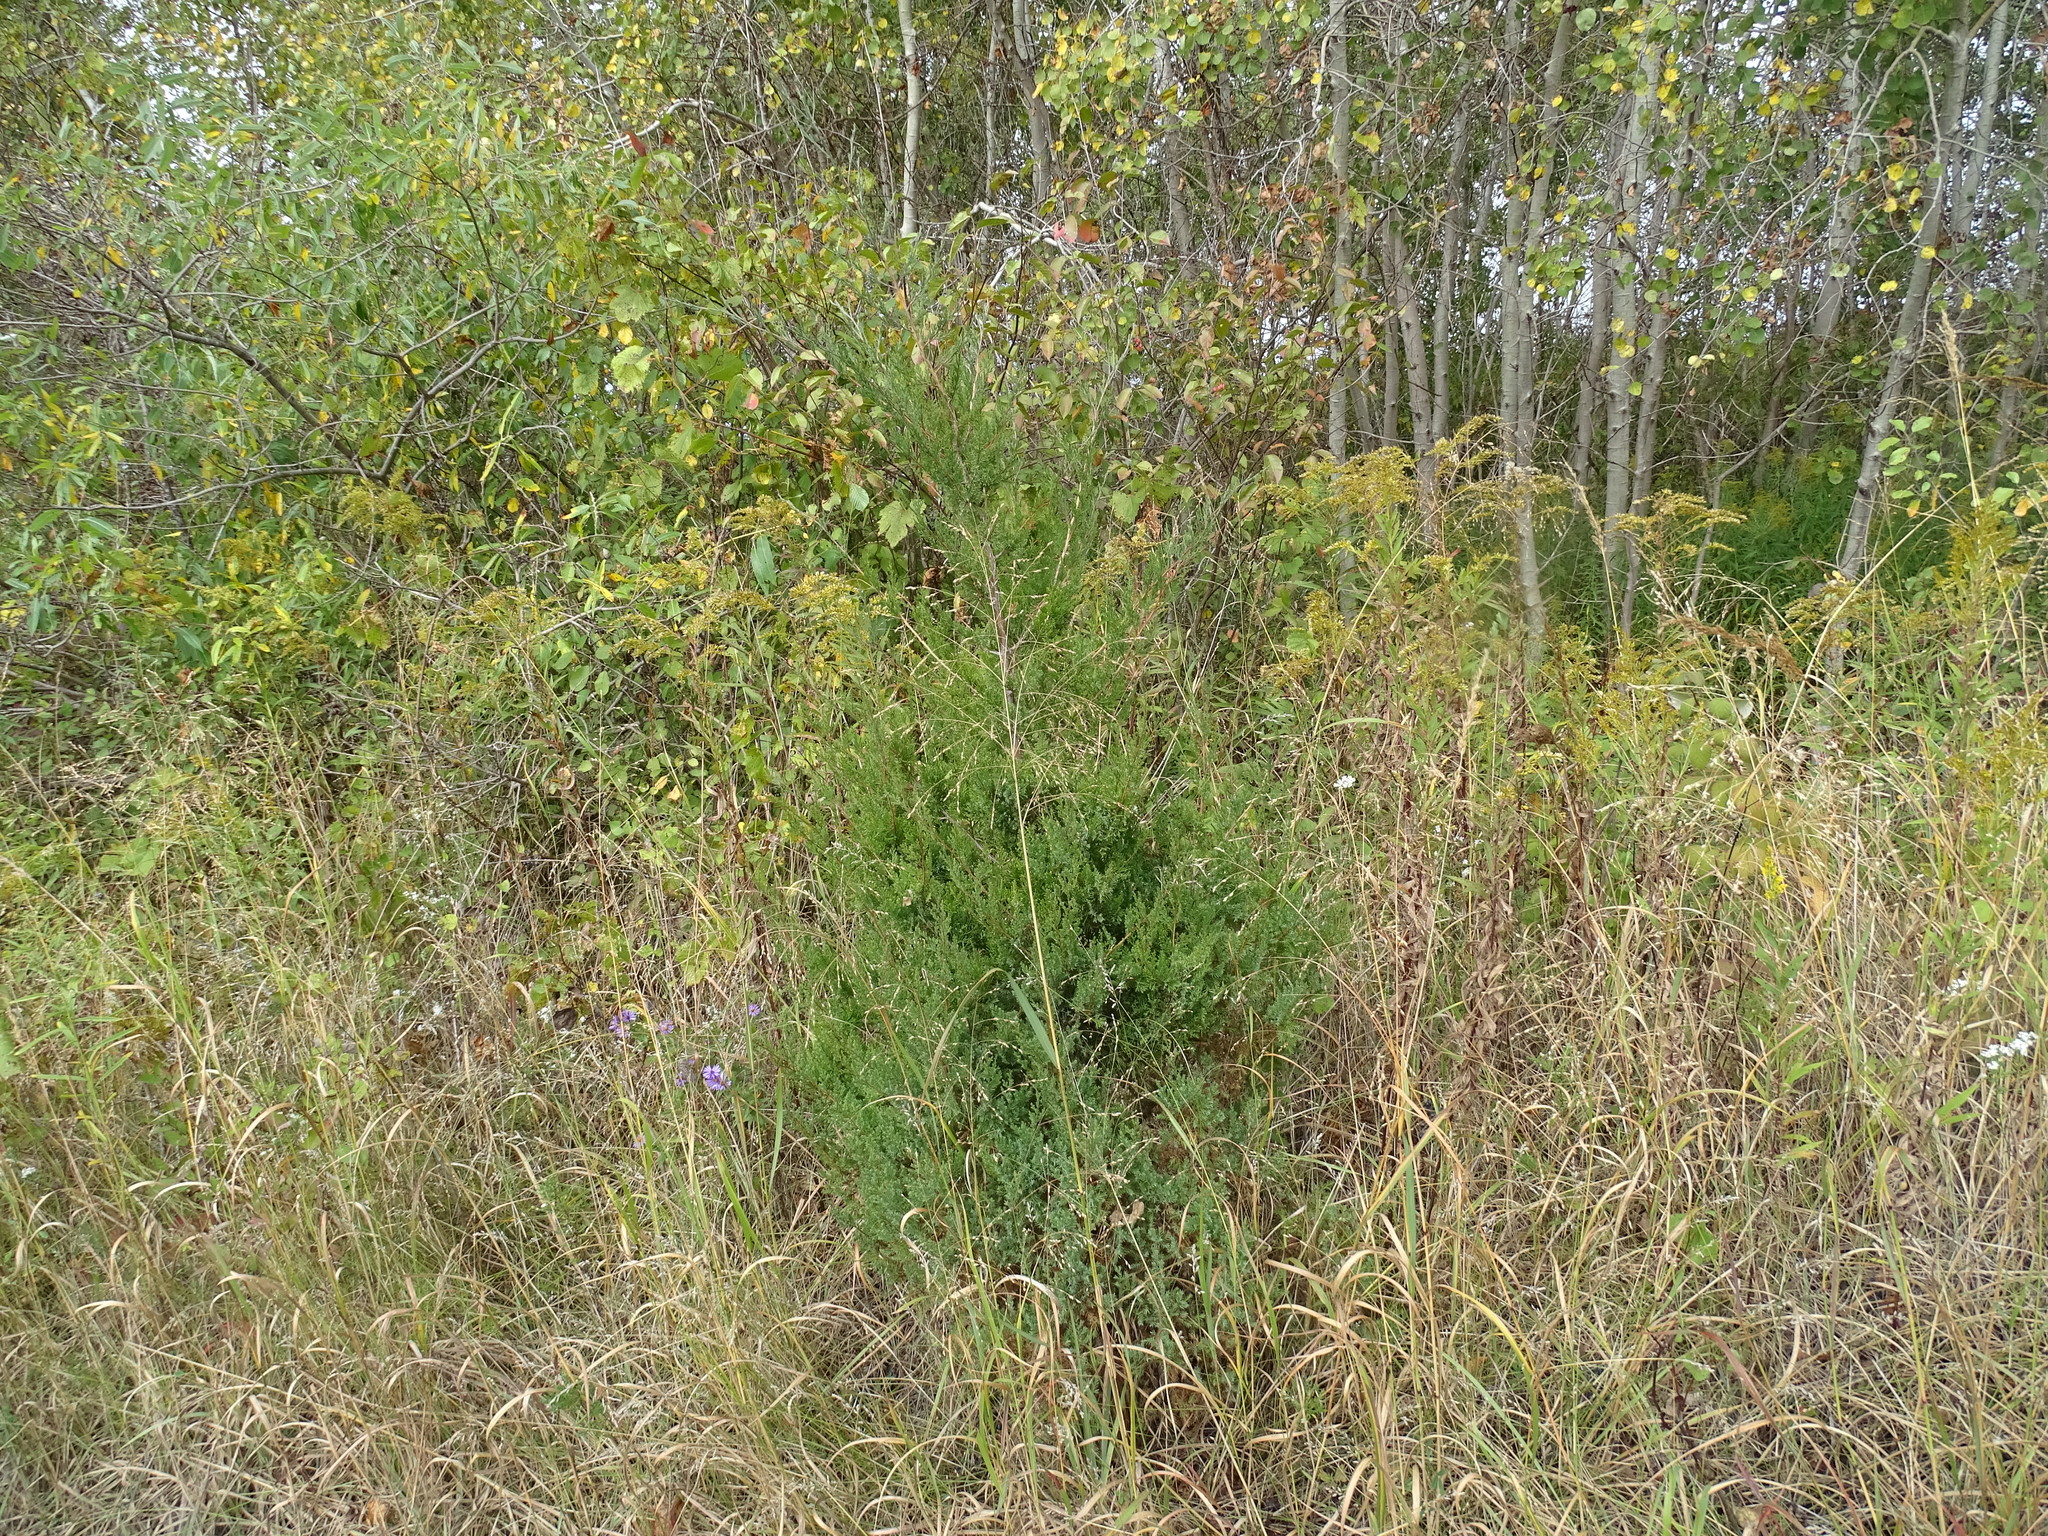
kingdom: Plantae
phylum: Tracheophyta
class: Pinopsida
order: Pinales
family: Cupressaceae
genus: Juniperus
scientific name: Juniperus virginiana
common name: Red juniper
